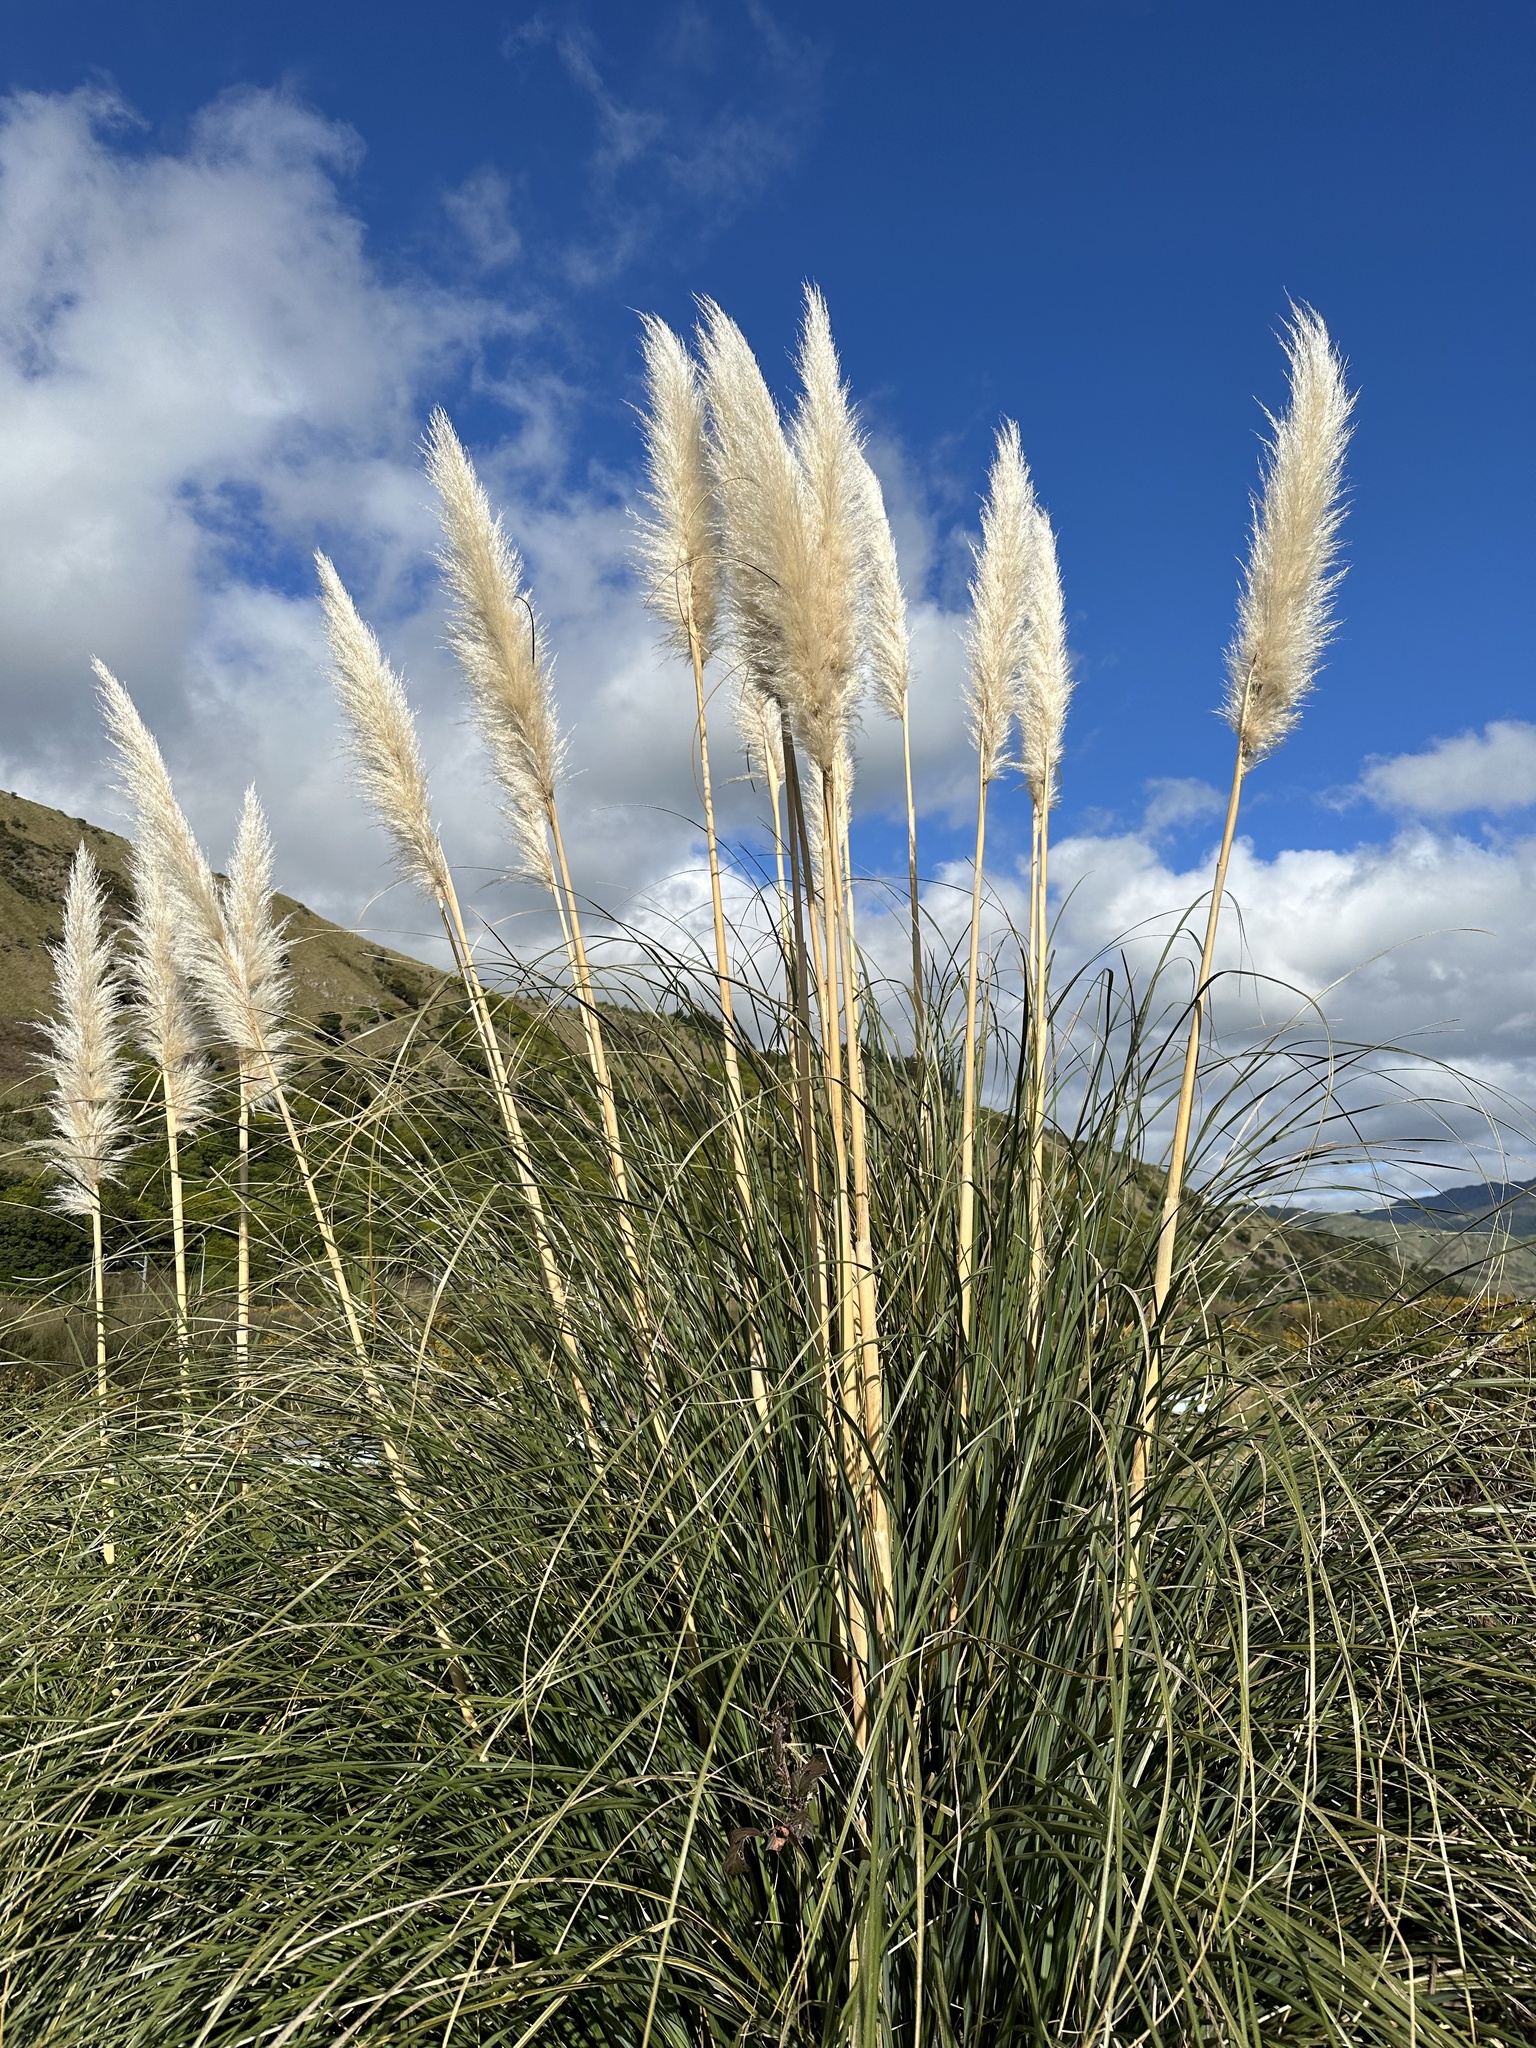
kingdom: Plantae
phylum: Tracheophyta
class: Liliopsida
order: Poales
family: Poaceae
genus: Cortaderia
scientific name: Cortaderia selloana
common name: Uruguayan pampas grass
